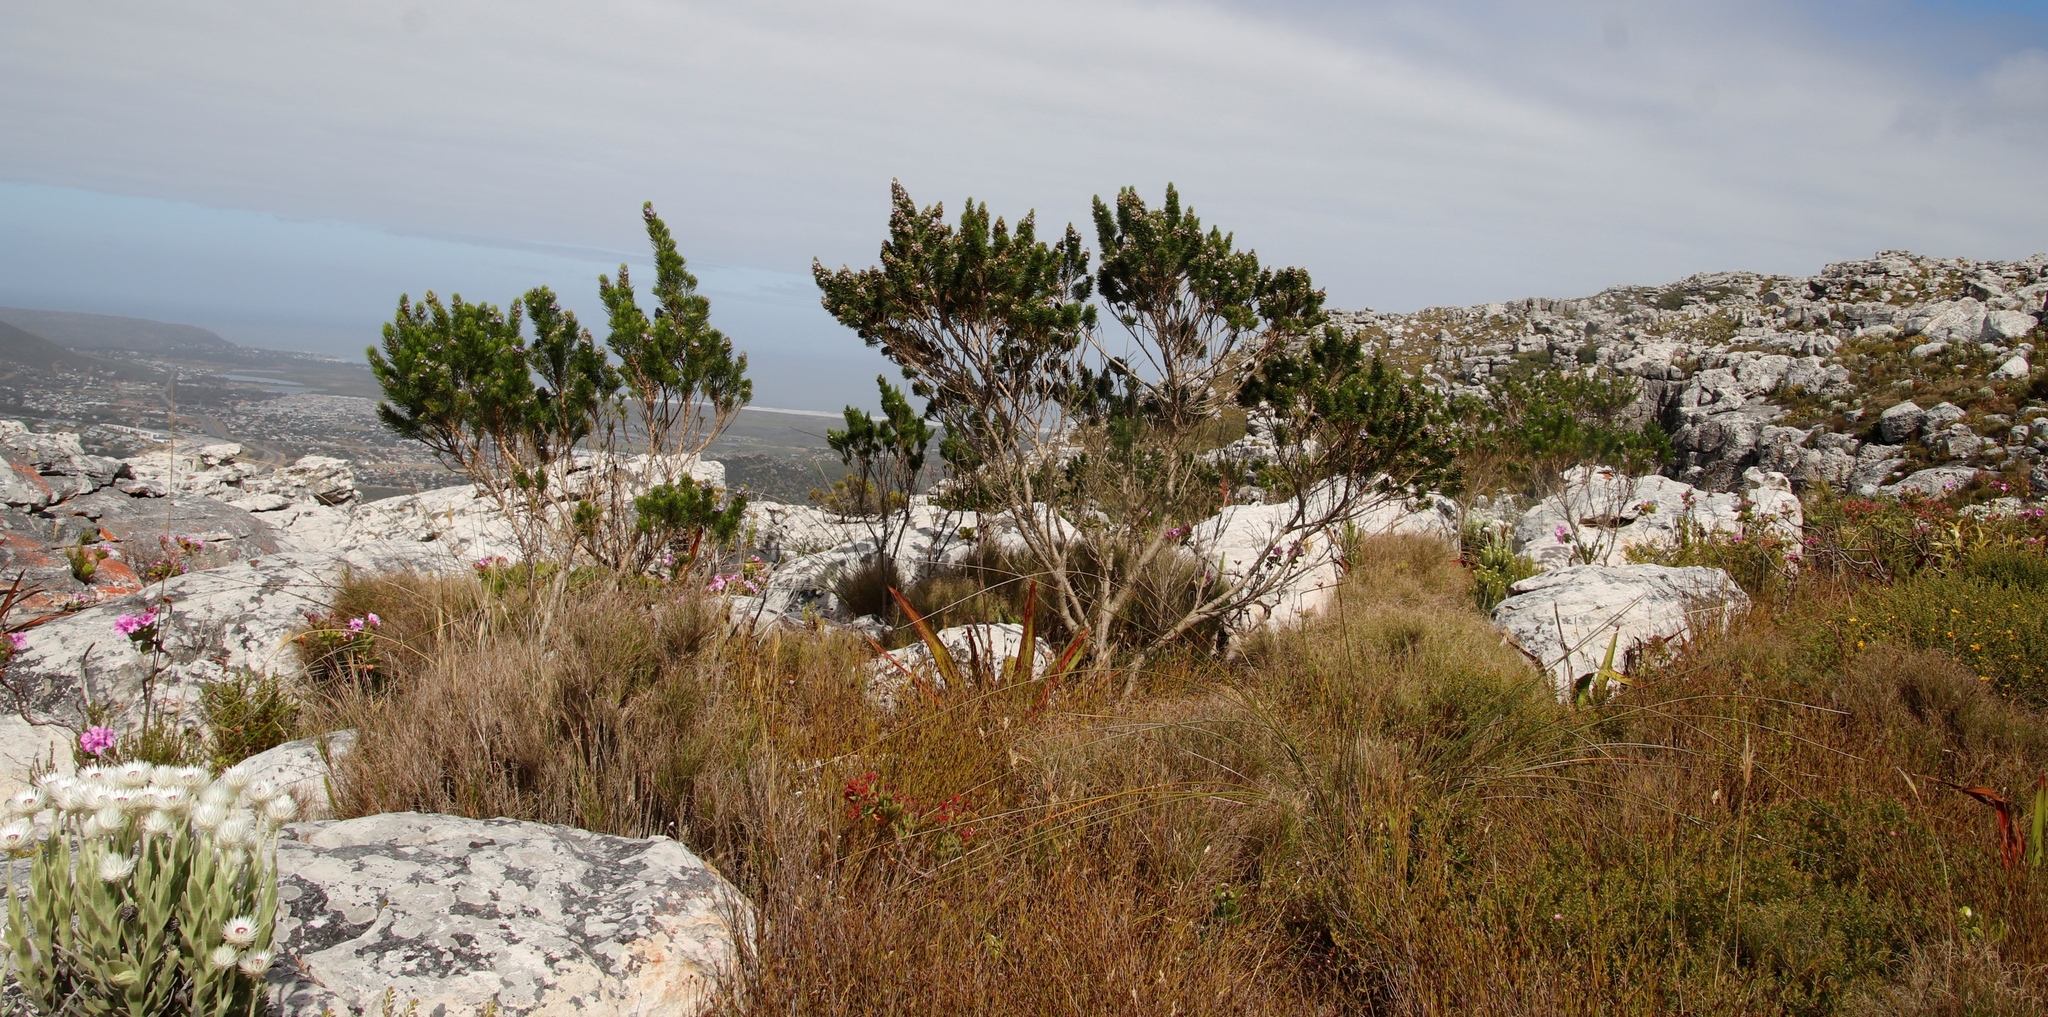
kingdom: Plantae
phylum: Tracheophyta
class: Magnoliopsida
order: Fabales
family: Fabaceae
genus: Psoralea
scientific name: Psoralea pinnata
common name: African scurfpea
